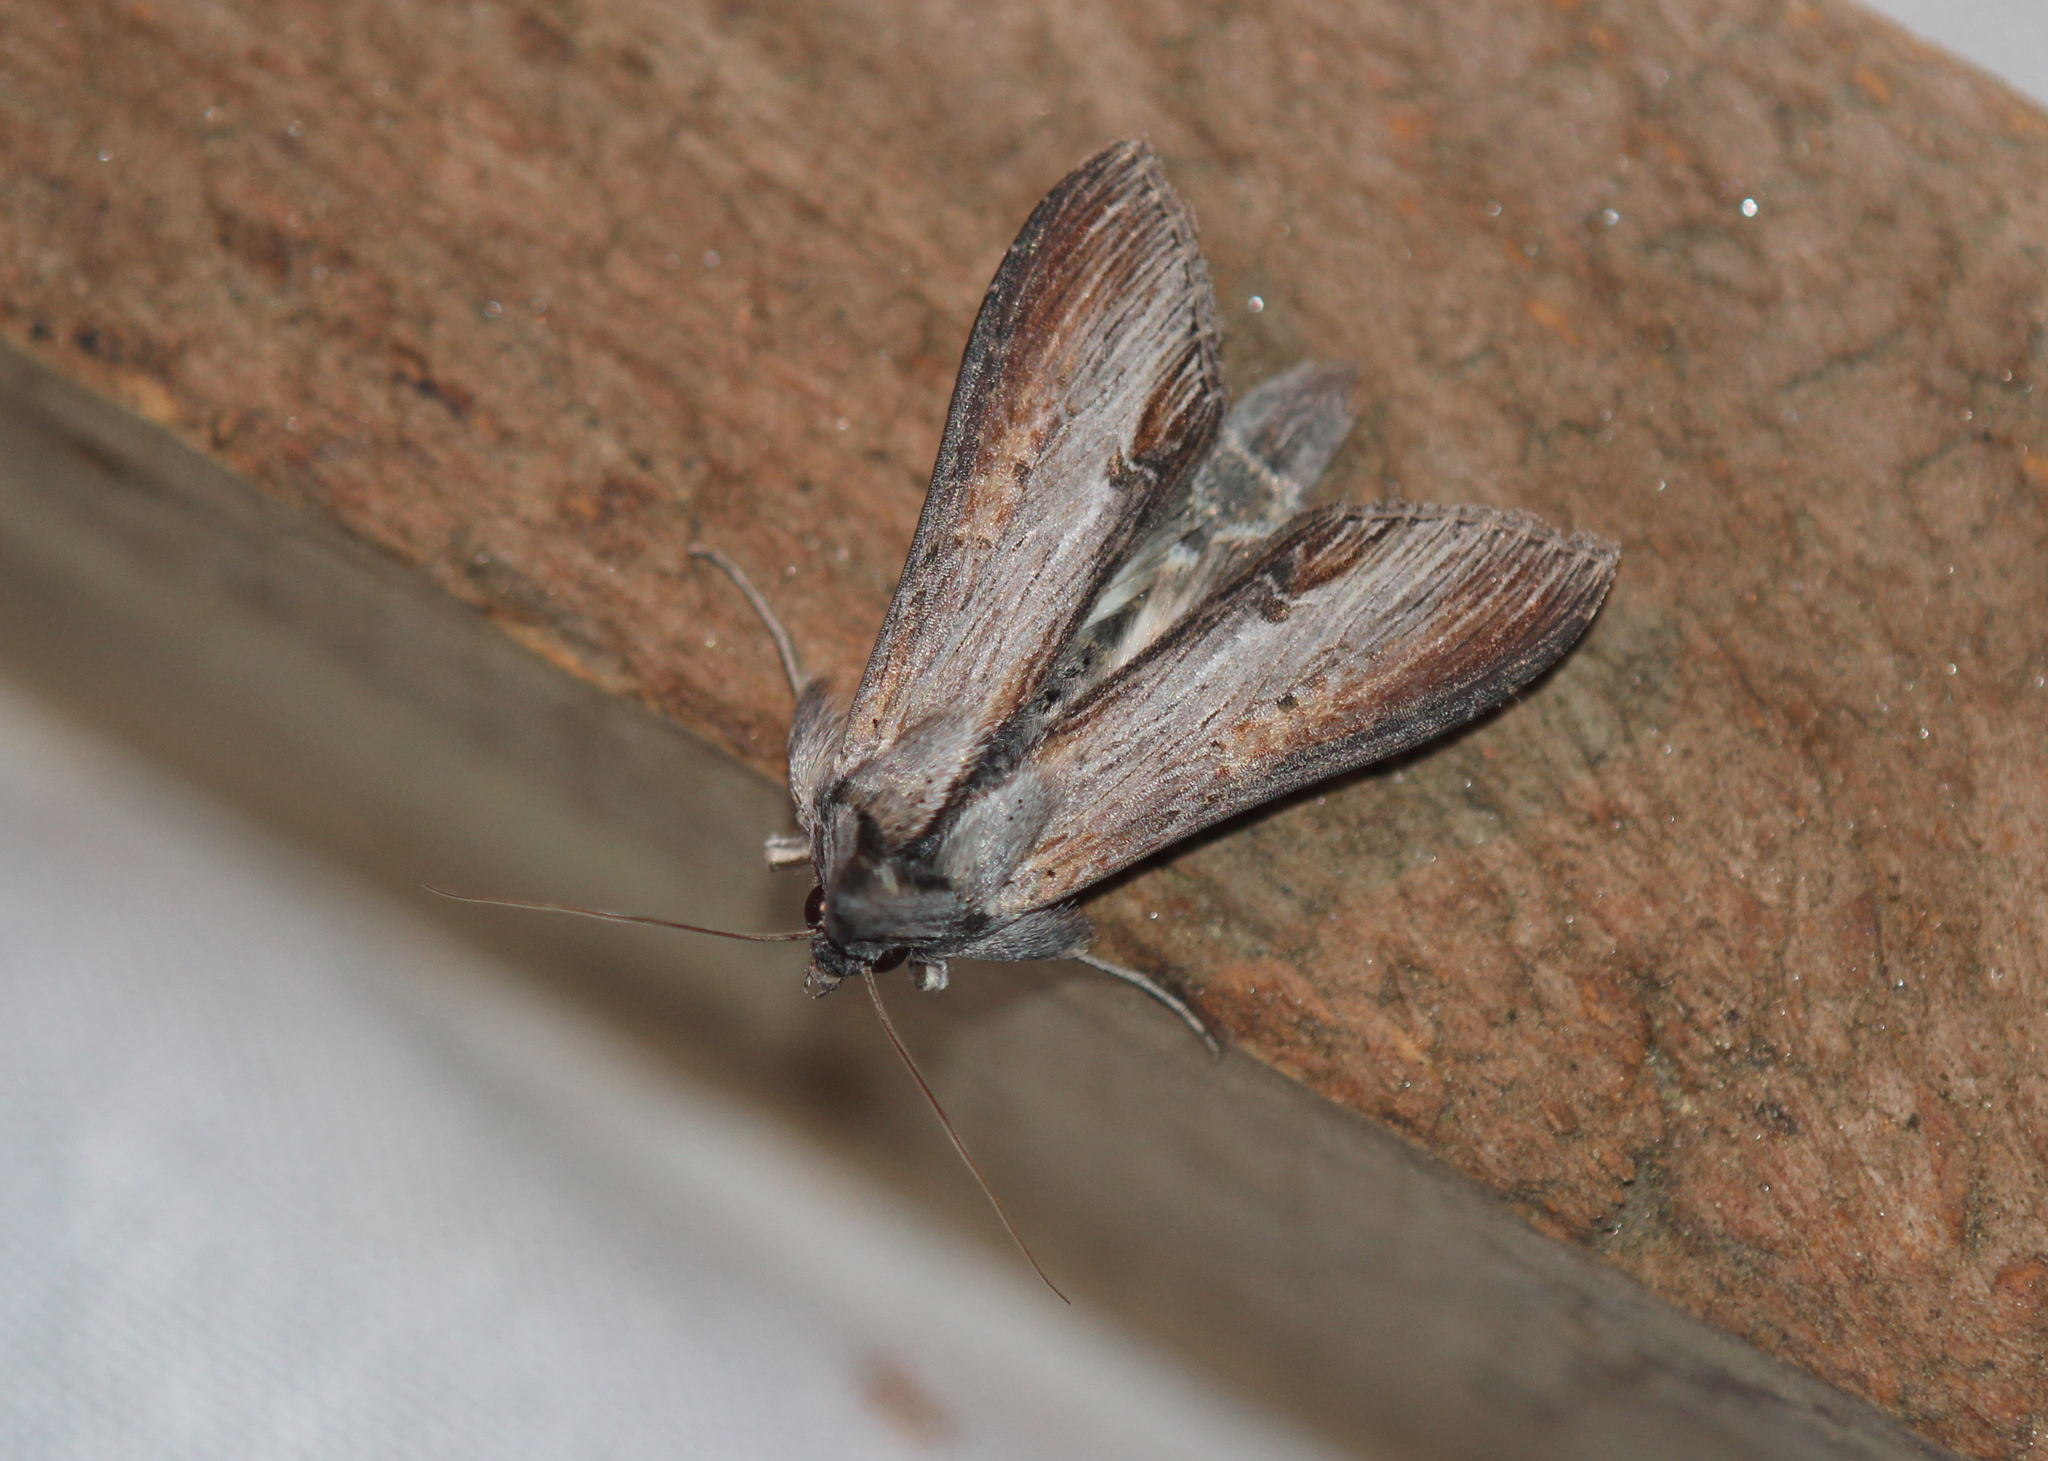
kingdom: Animalia
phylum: Arthropoda
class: Insecta
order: Lepidoptera
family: Noctuidae
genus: Cucullia
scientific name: Cucullia asteroides
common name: Asteroid moth
